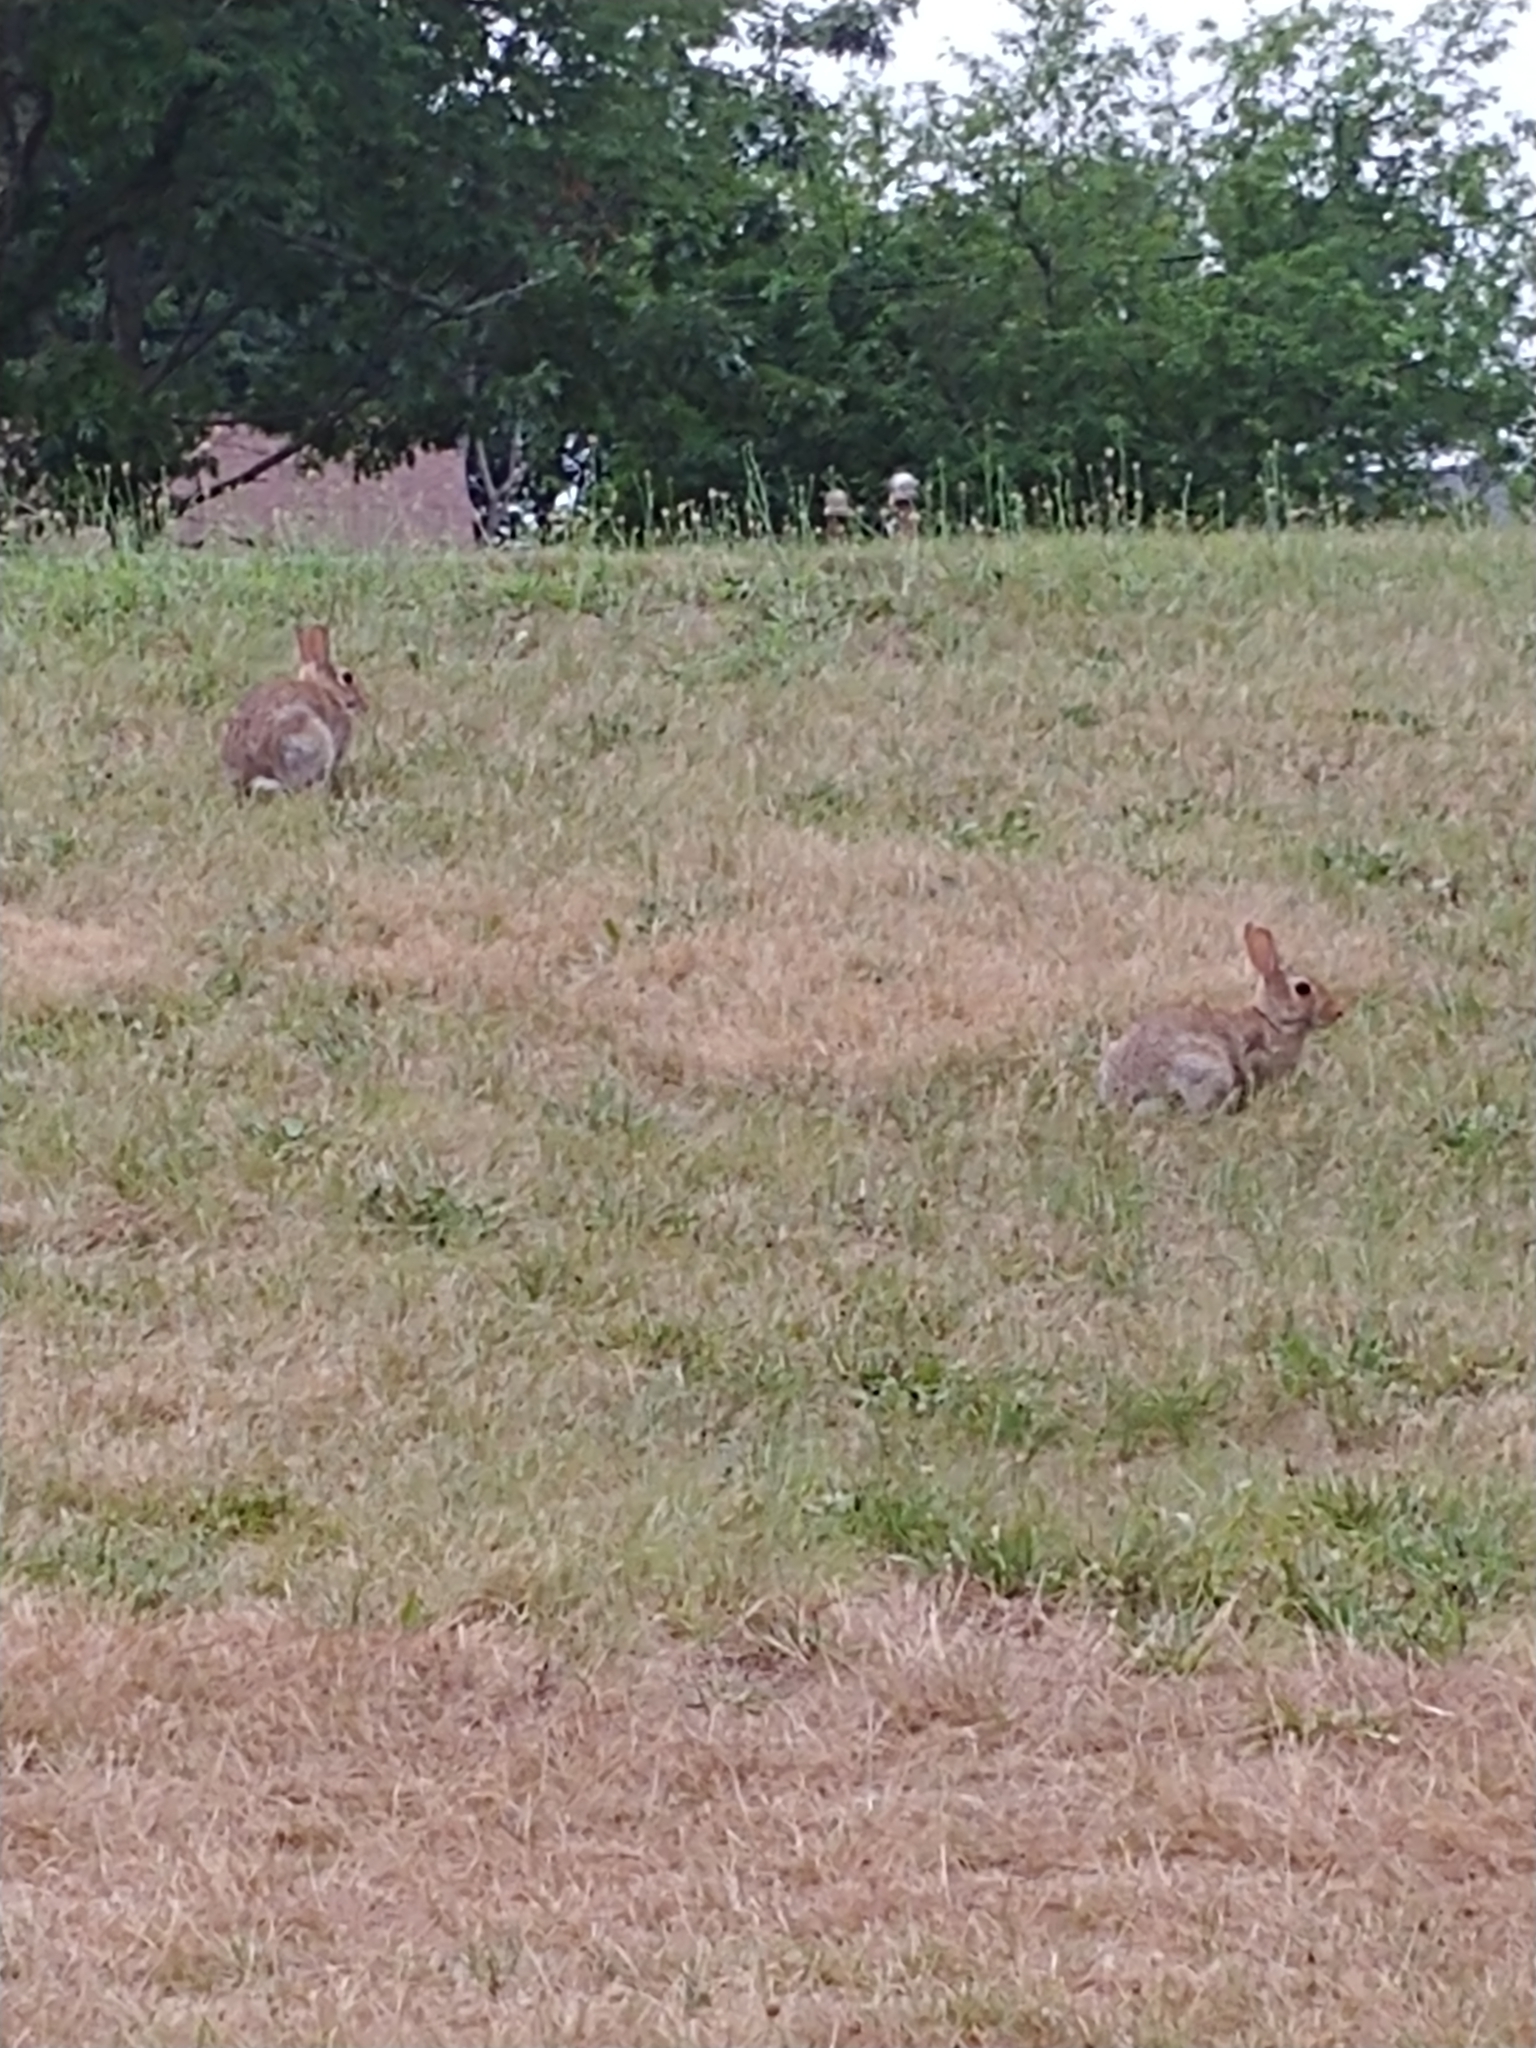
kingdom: Animalia
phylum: Chordata
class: Mammalia
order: Lagomorpha
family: Leporidae
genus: Sylvilagus
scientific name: Sylvilagus floridanus
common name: Eastern cottontail
